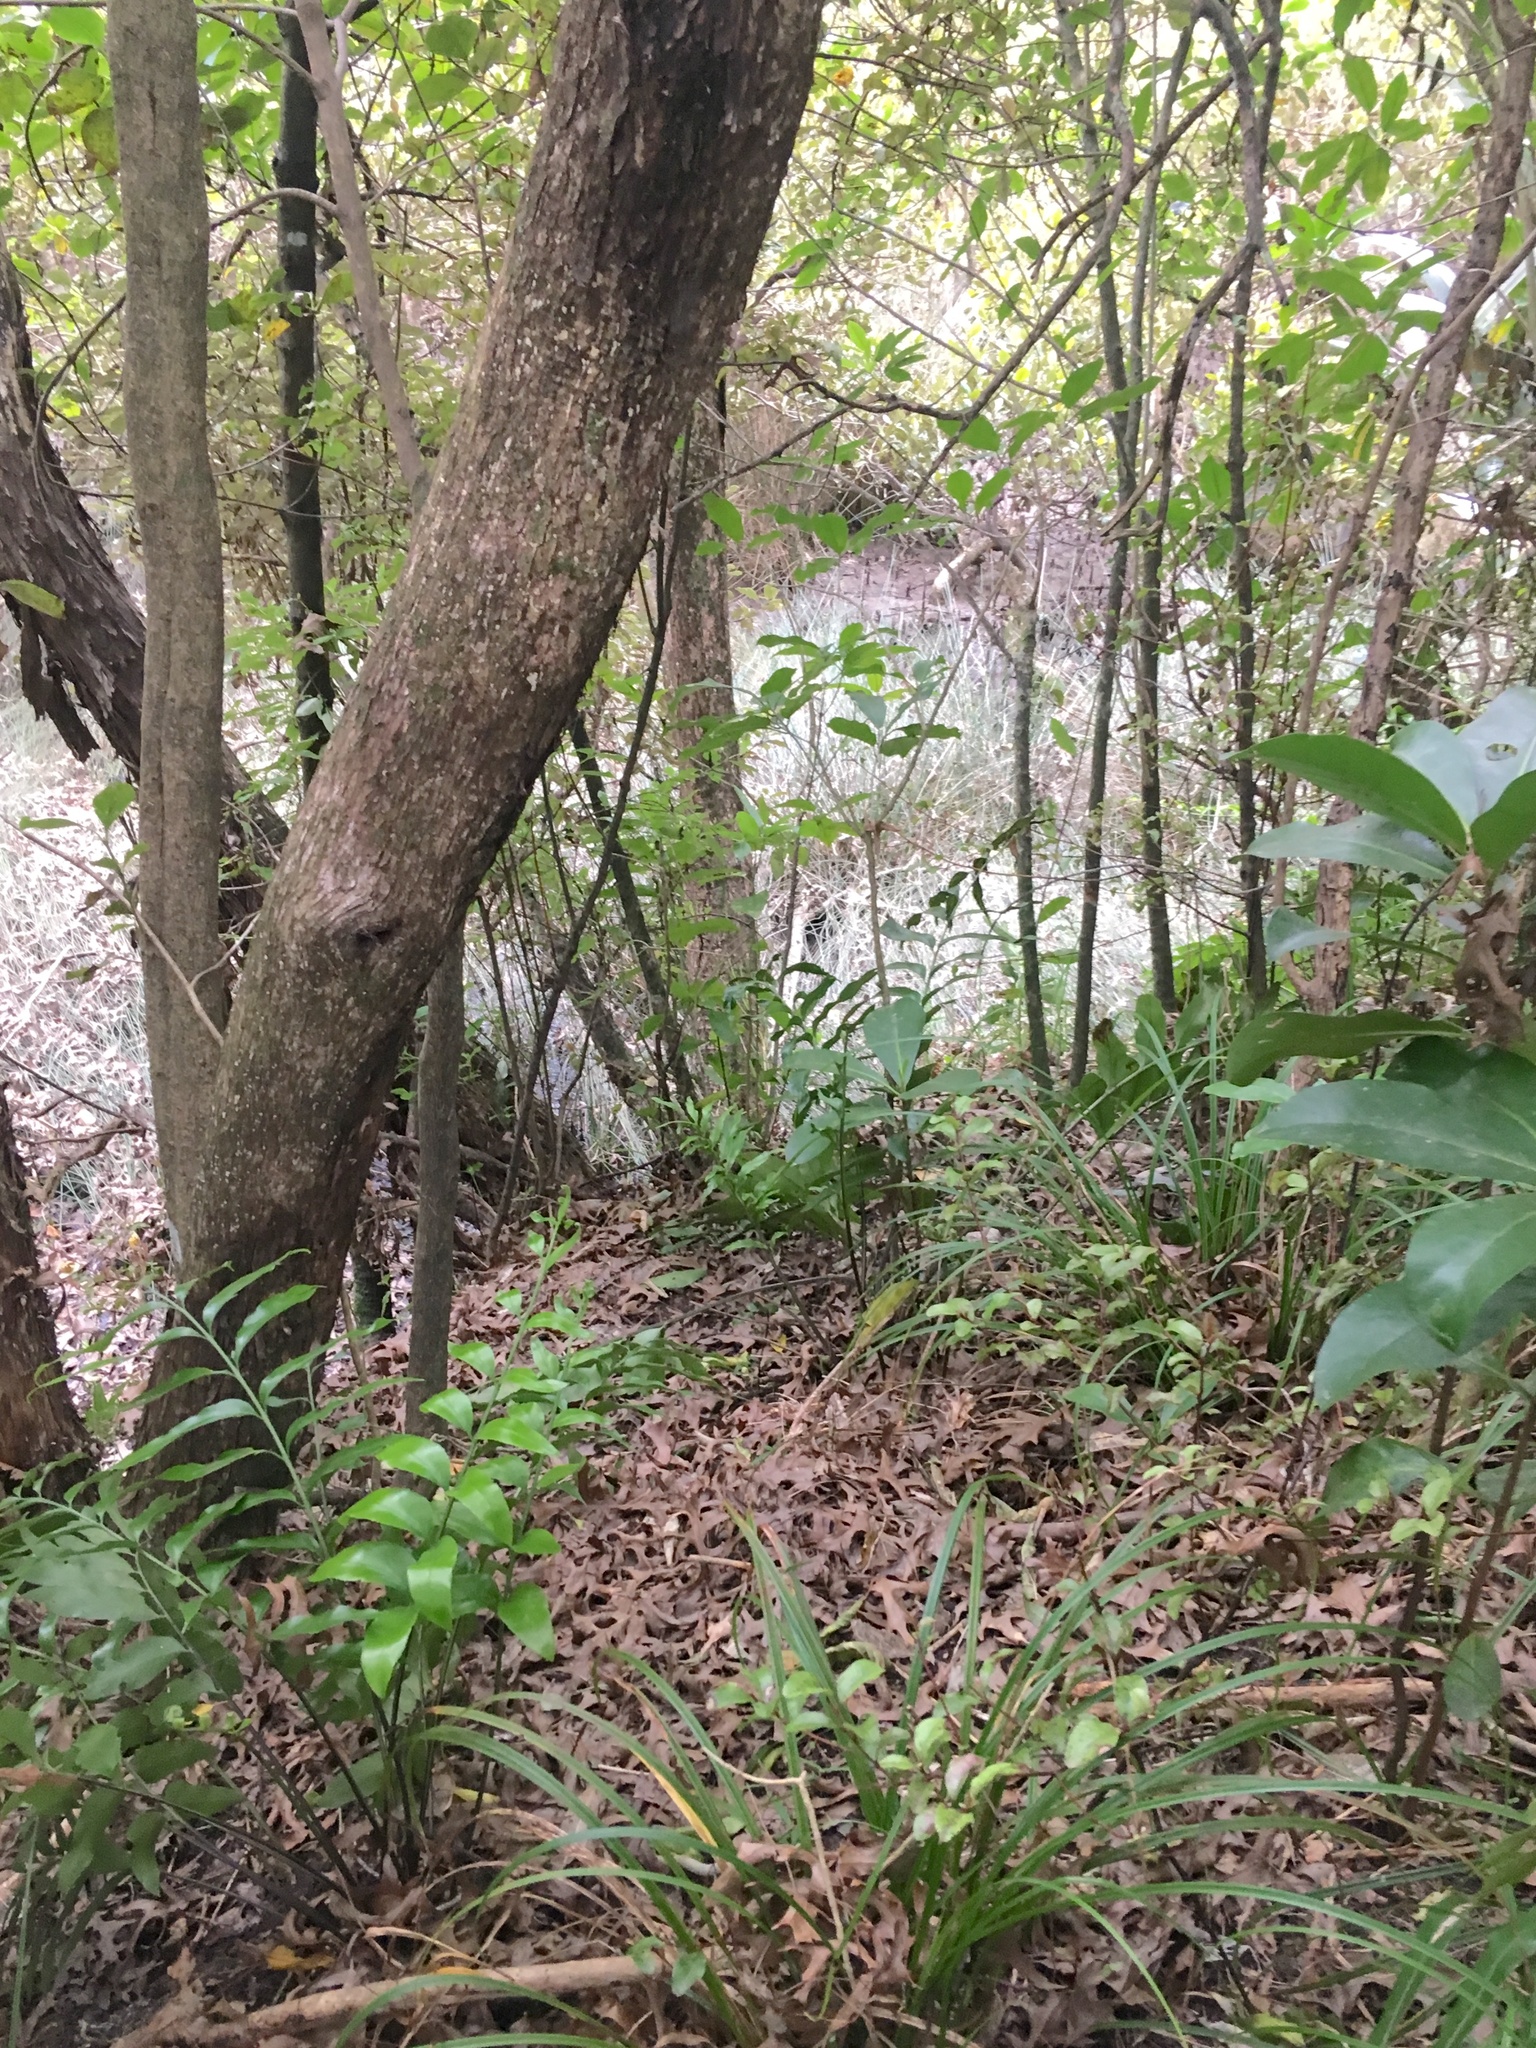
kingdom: Plantae
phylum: Tracheophyta
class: Magnoliopsida
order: Cucurbitales
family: Corynocarpaceae
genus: Corynocarpus
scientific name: Corynocarpus laevigatus
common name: New zealand laurel
